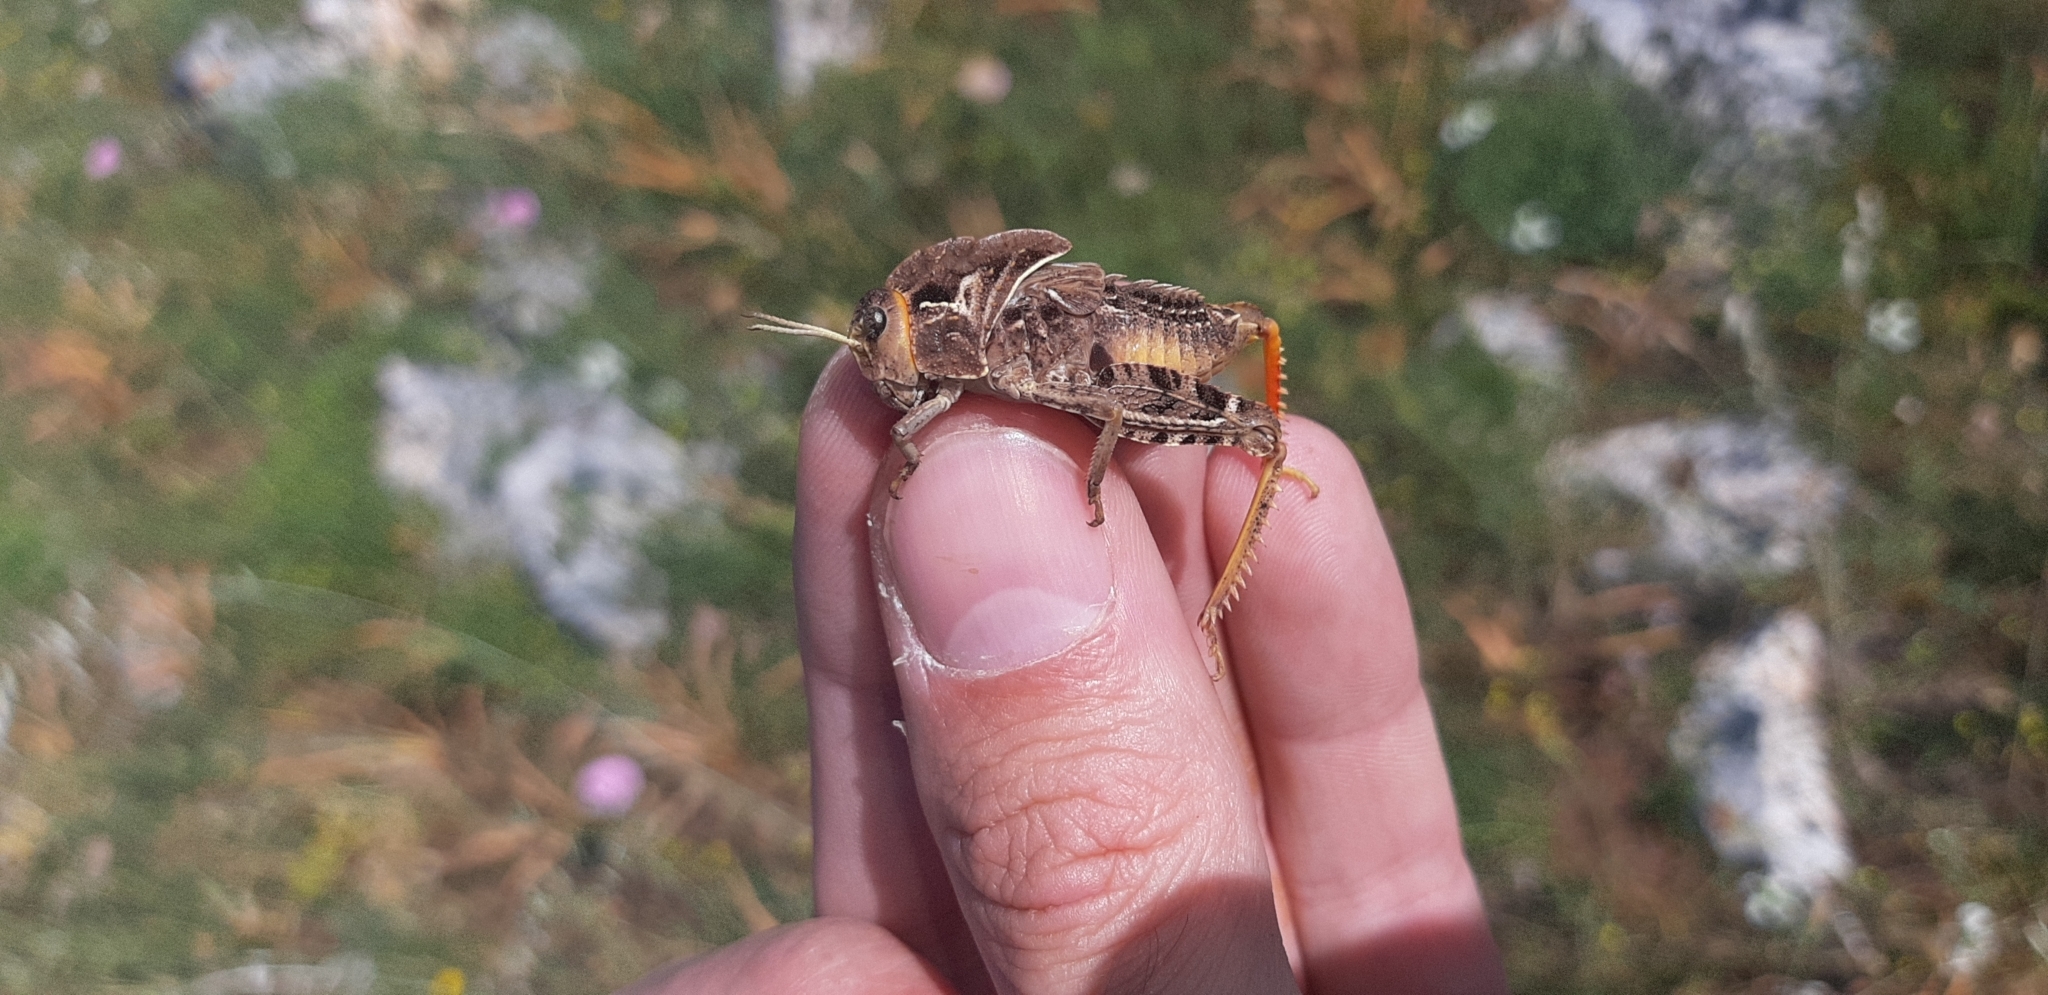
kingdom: Animalia
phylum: Arthropoda
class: Insecta
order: Orthoptera
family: Pamphagidae
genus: Prionotropis
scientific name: Prionotropis appula
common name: Apulian stone grasshopper
